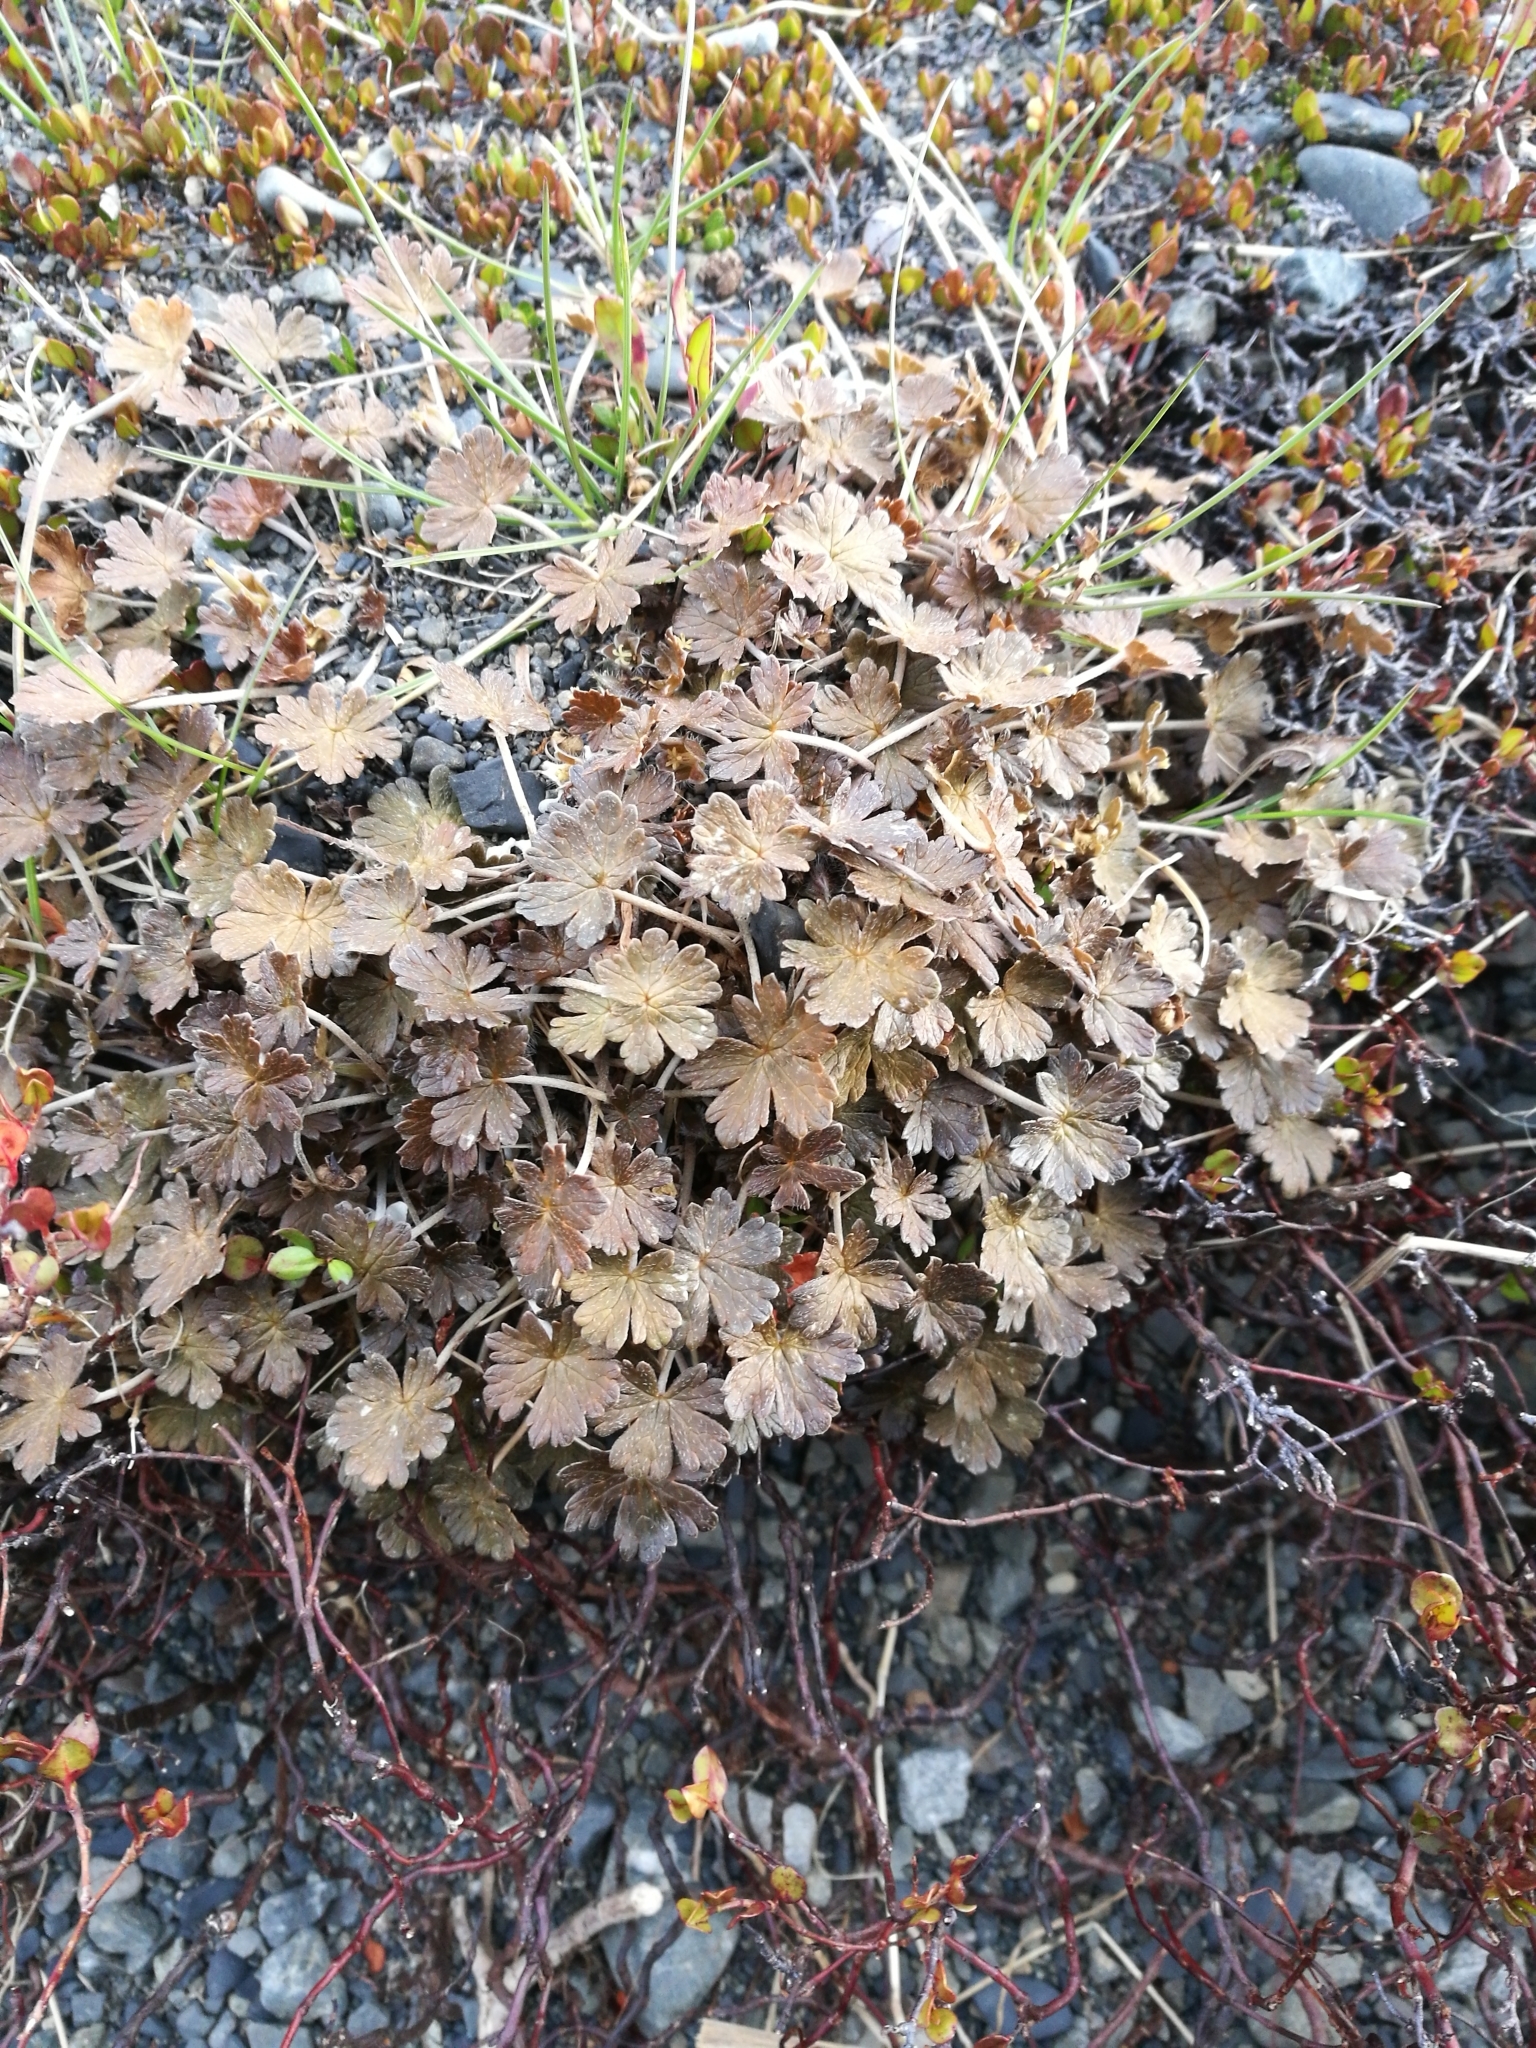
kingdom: Plantae
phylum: Tracheophyta
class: Magnoliopsida
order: Geraniales
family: Geraniaceae
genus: Geranium
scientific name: Geranium brevicaule
